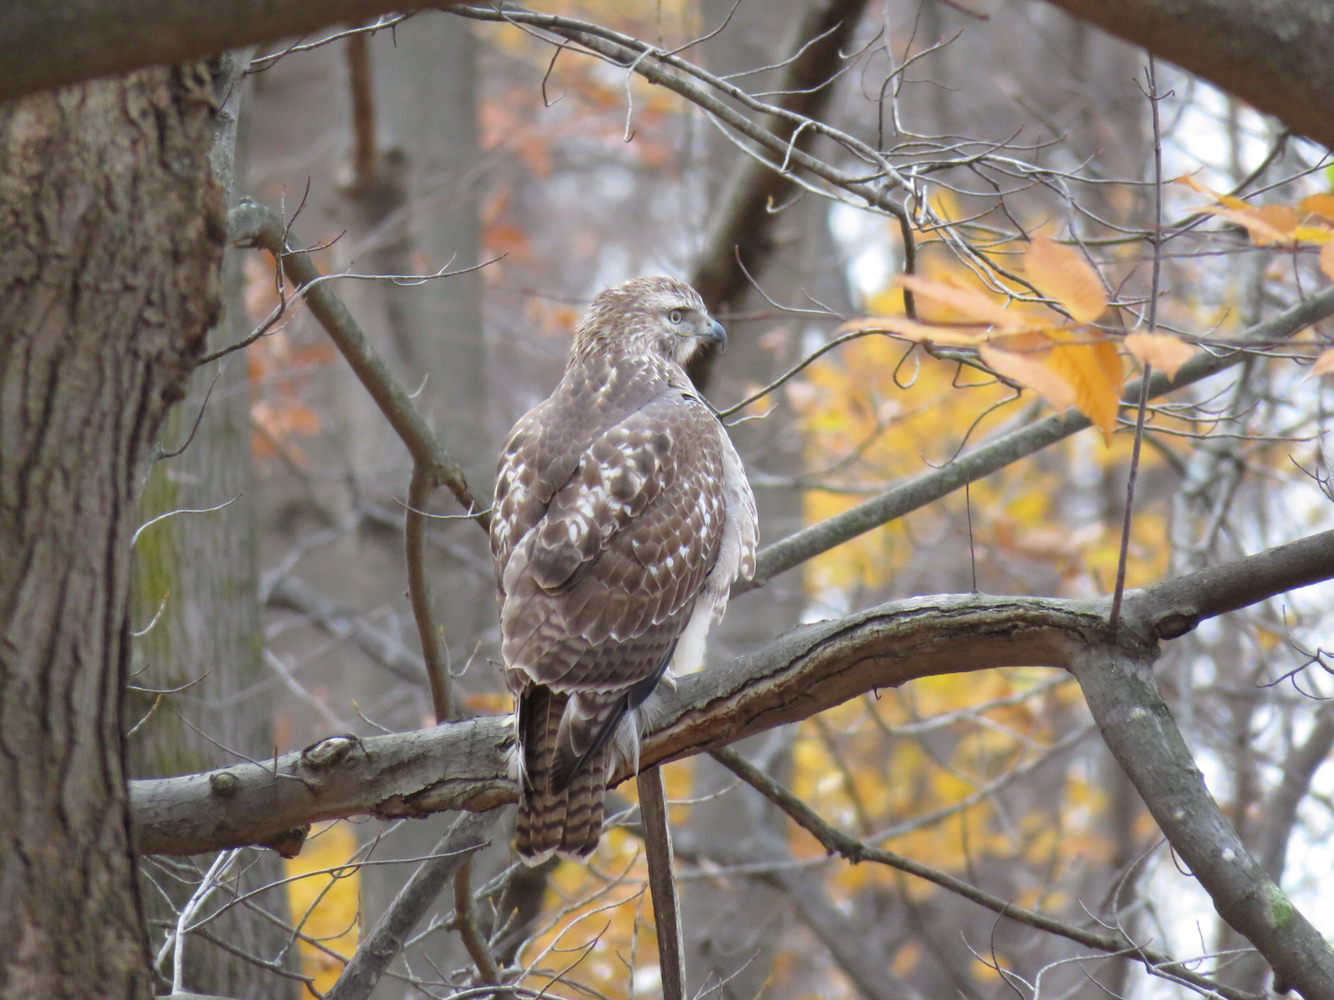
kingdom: Animalia
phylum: Chordata
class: Aves
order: Accipitriformes
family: Accipitridae
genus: Buteo
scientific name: Buteo jamaicensis
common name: Red-tailed hawk
